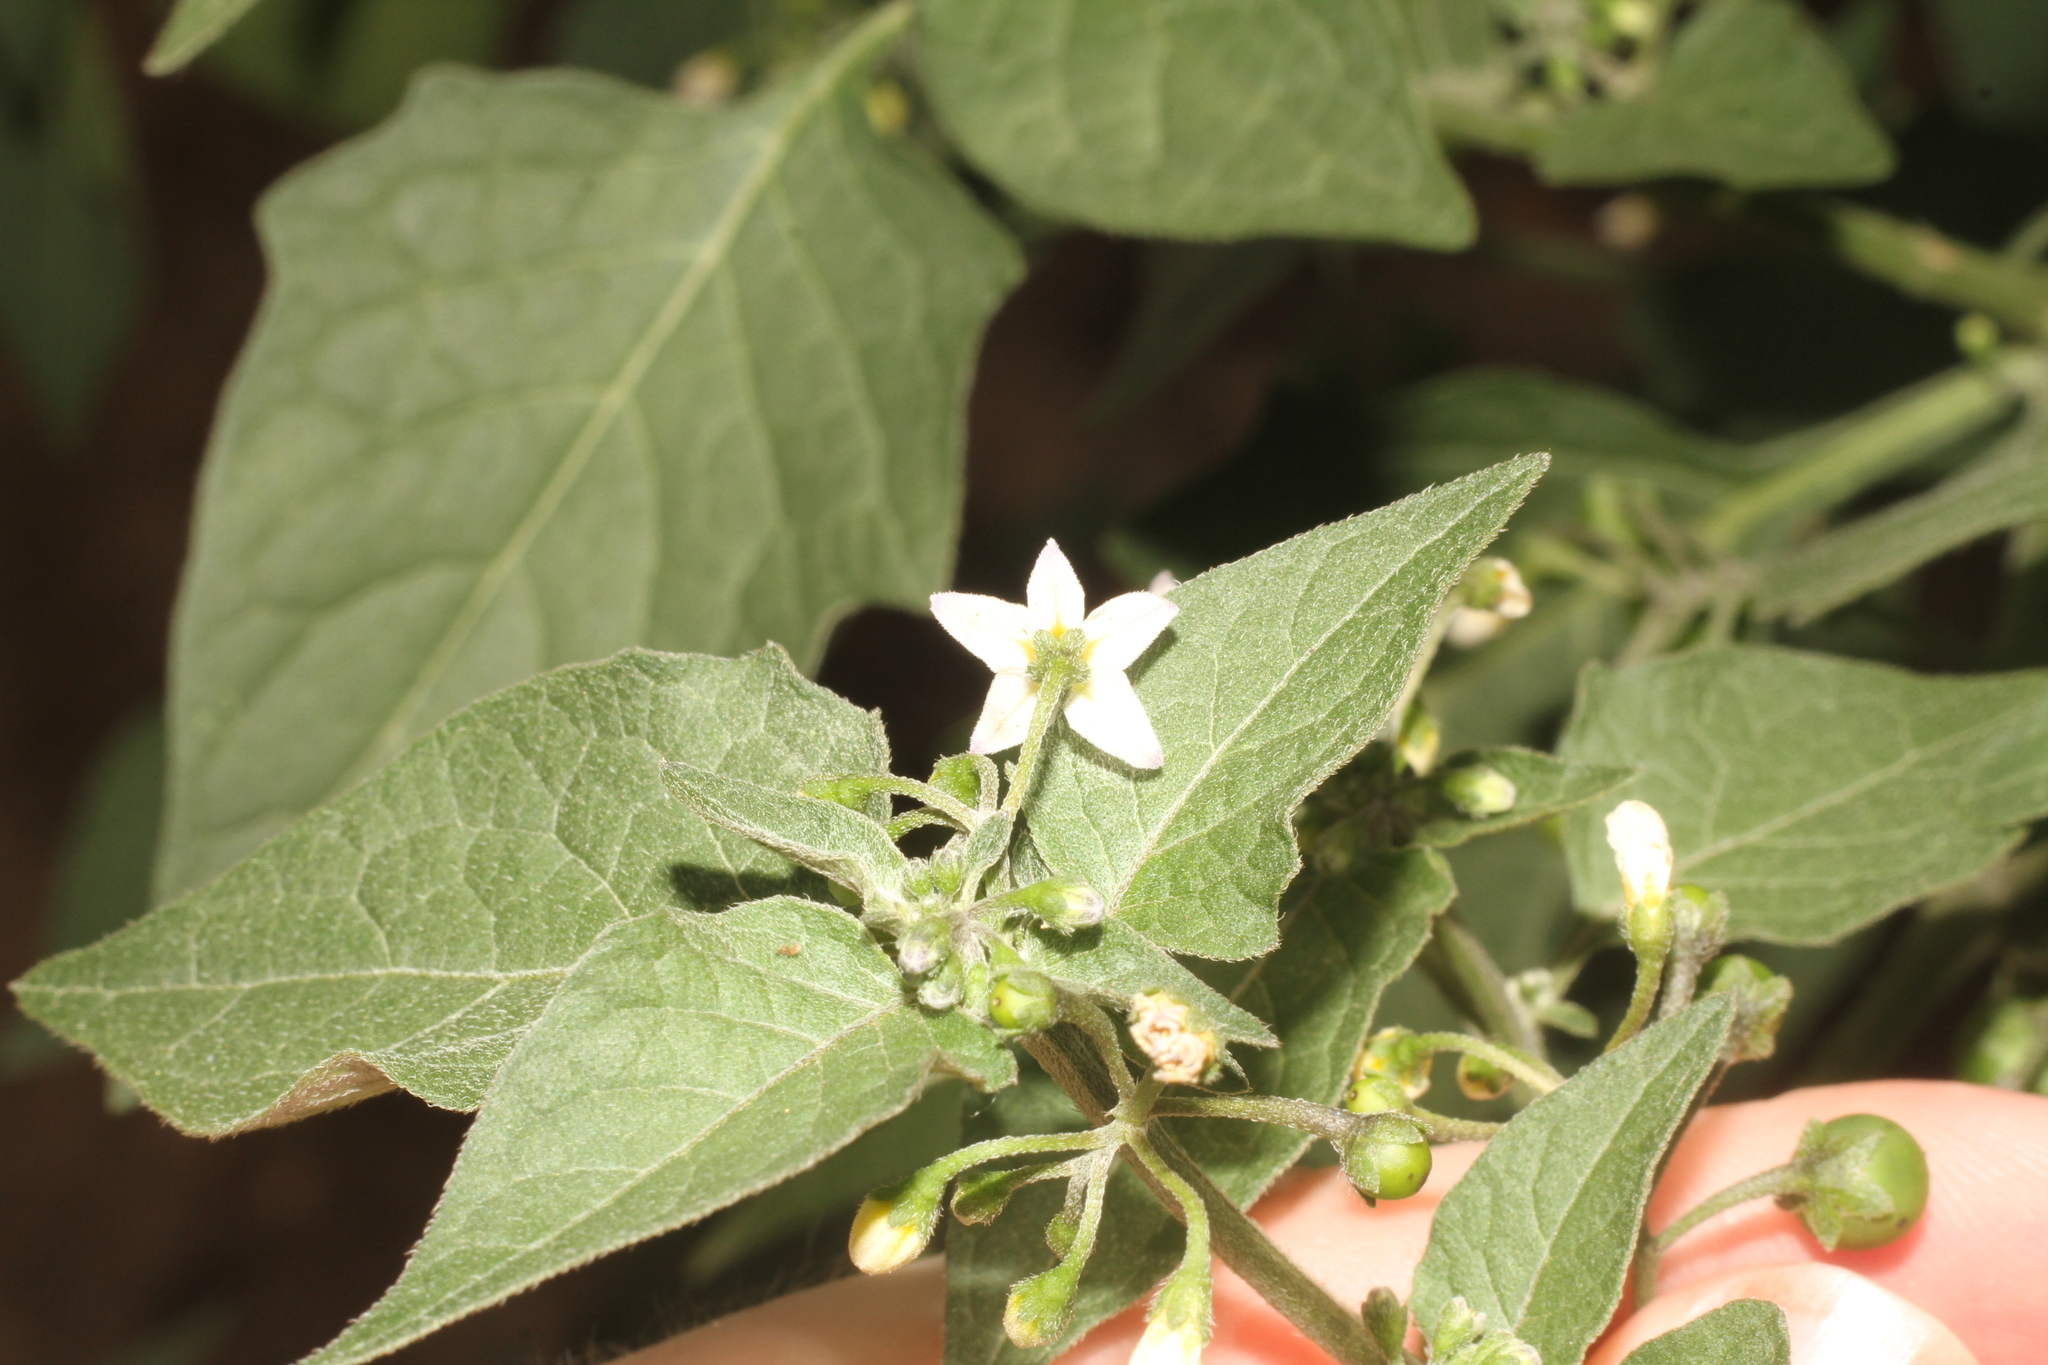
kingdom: Plantae
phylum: Tracheophyta
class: Magnoliopsida
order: Solanales
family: Solanaceae
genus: Solanum
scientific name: Solanum nigrum
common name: Black nightshade
